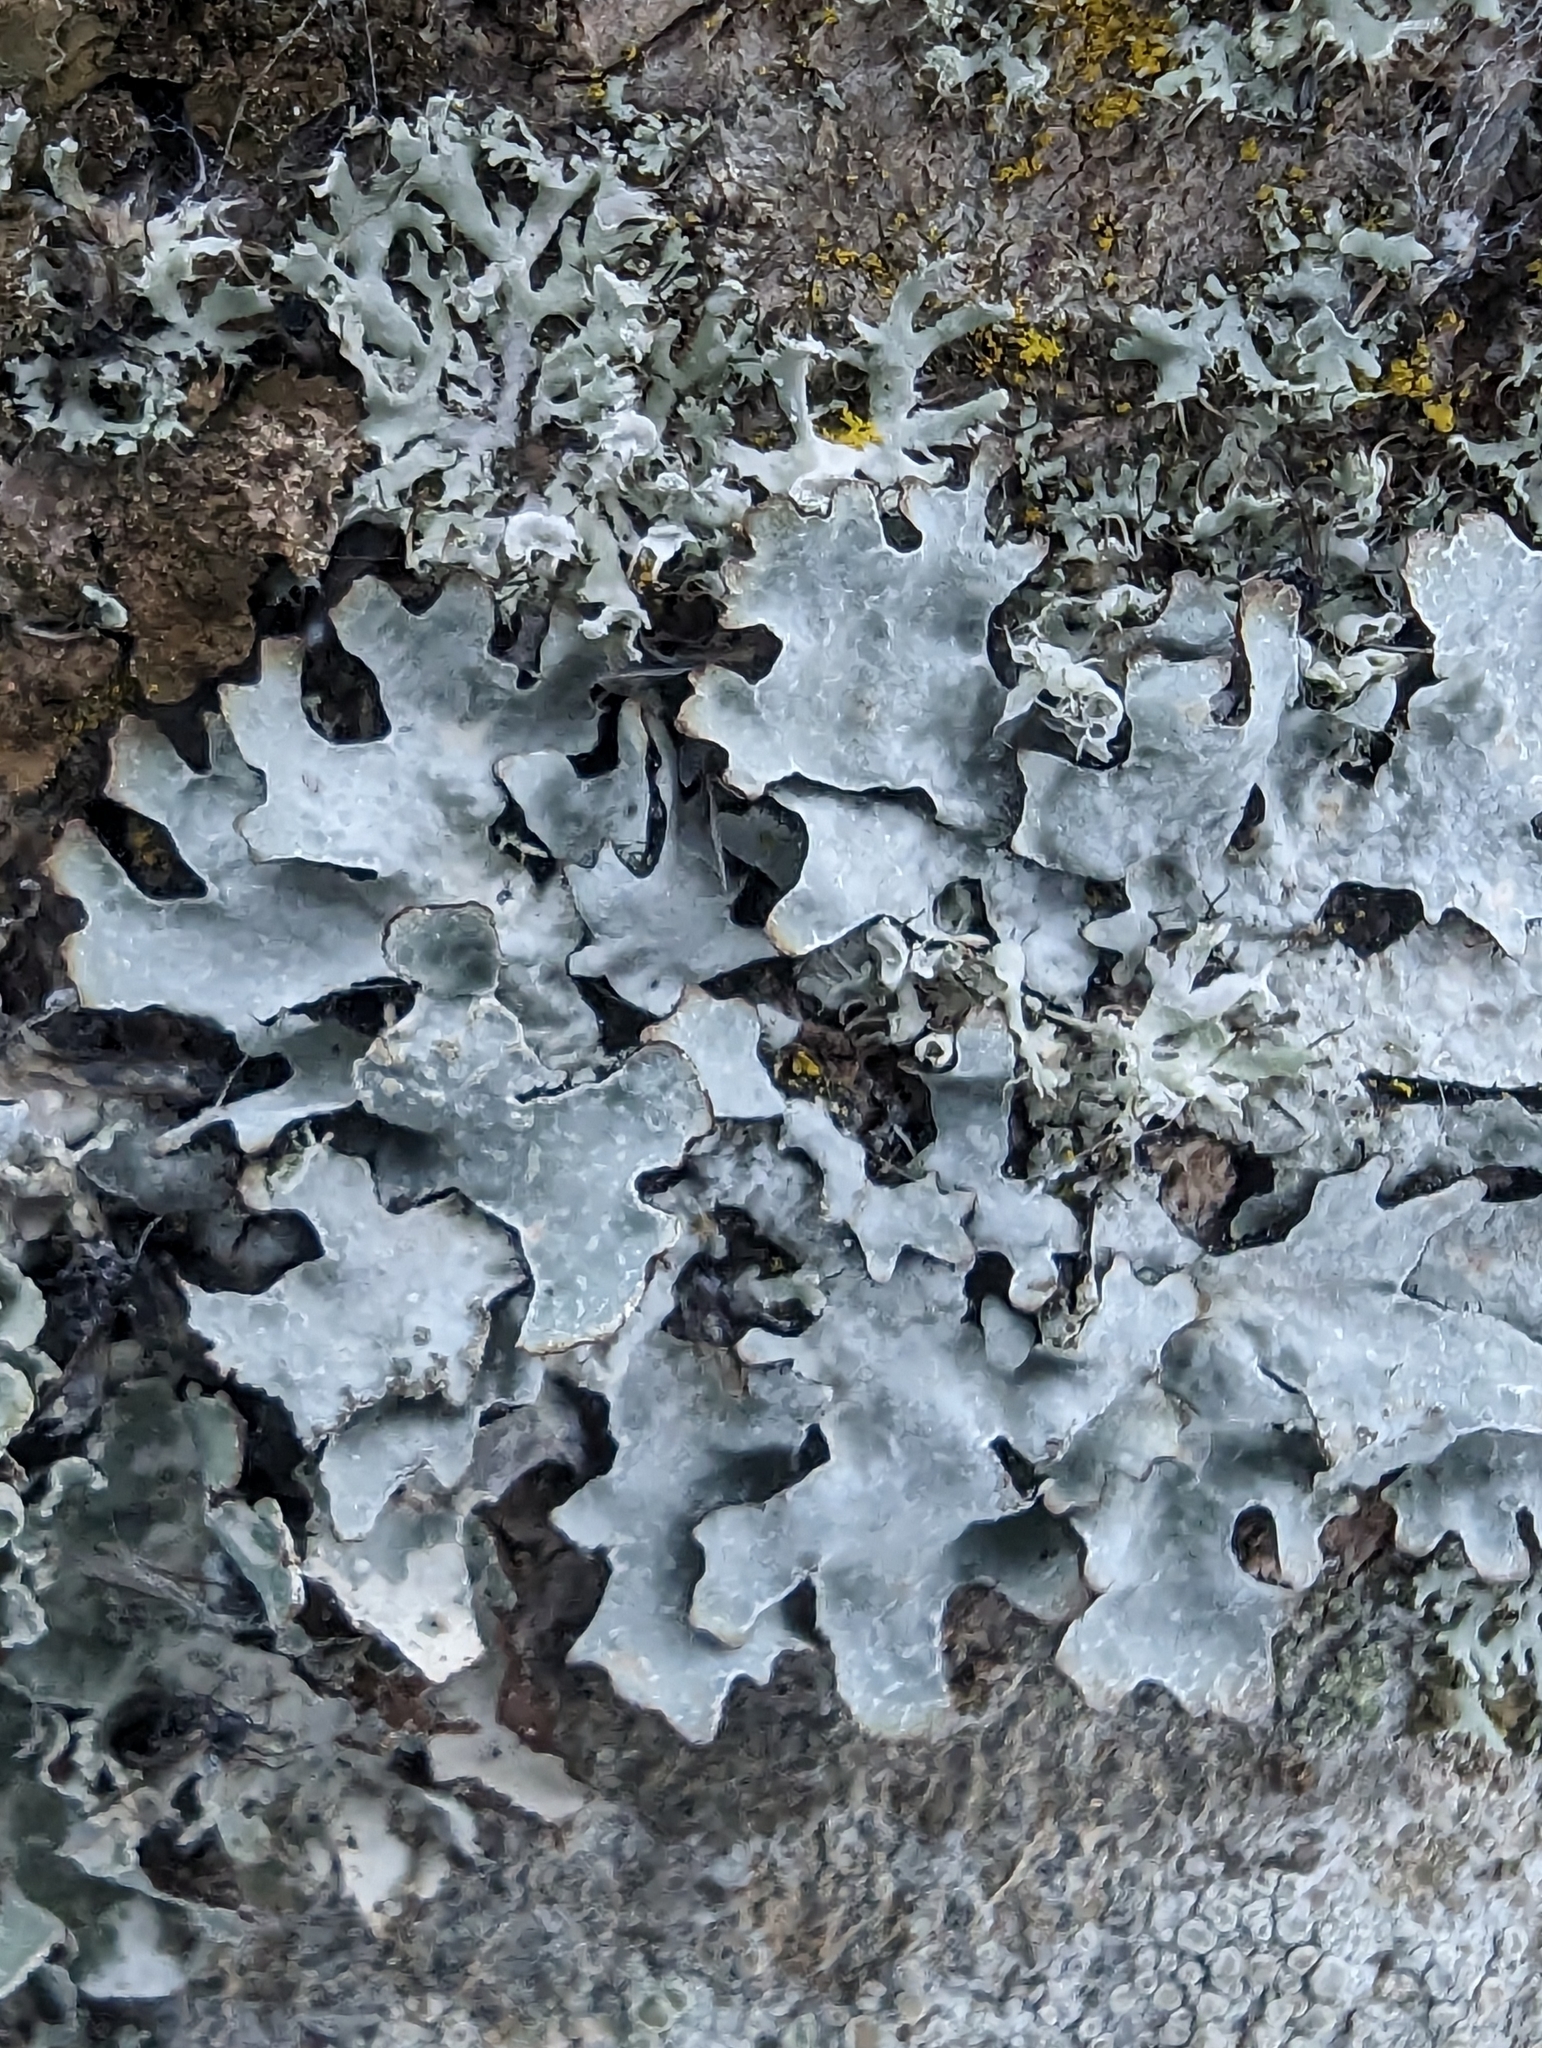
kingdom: Fungi
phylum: Ascomycota
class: Lecanoromycetes
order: Lecanorales
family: Parmeliaceae
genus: Parmelia
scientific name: Parmelia sulcata
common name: Netted shield lichen
